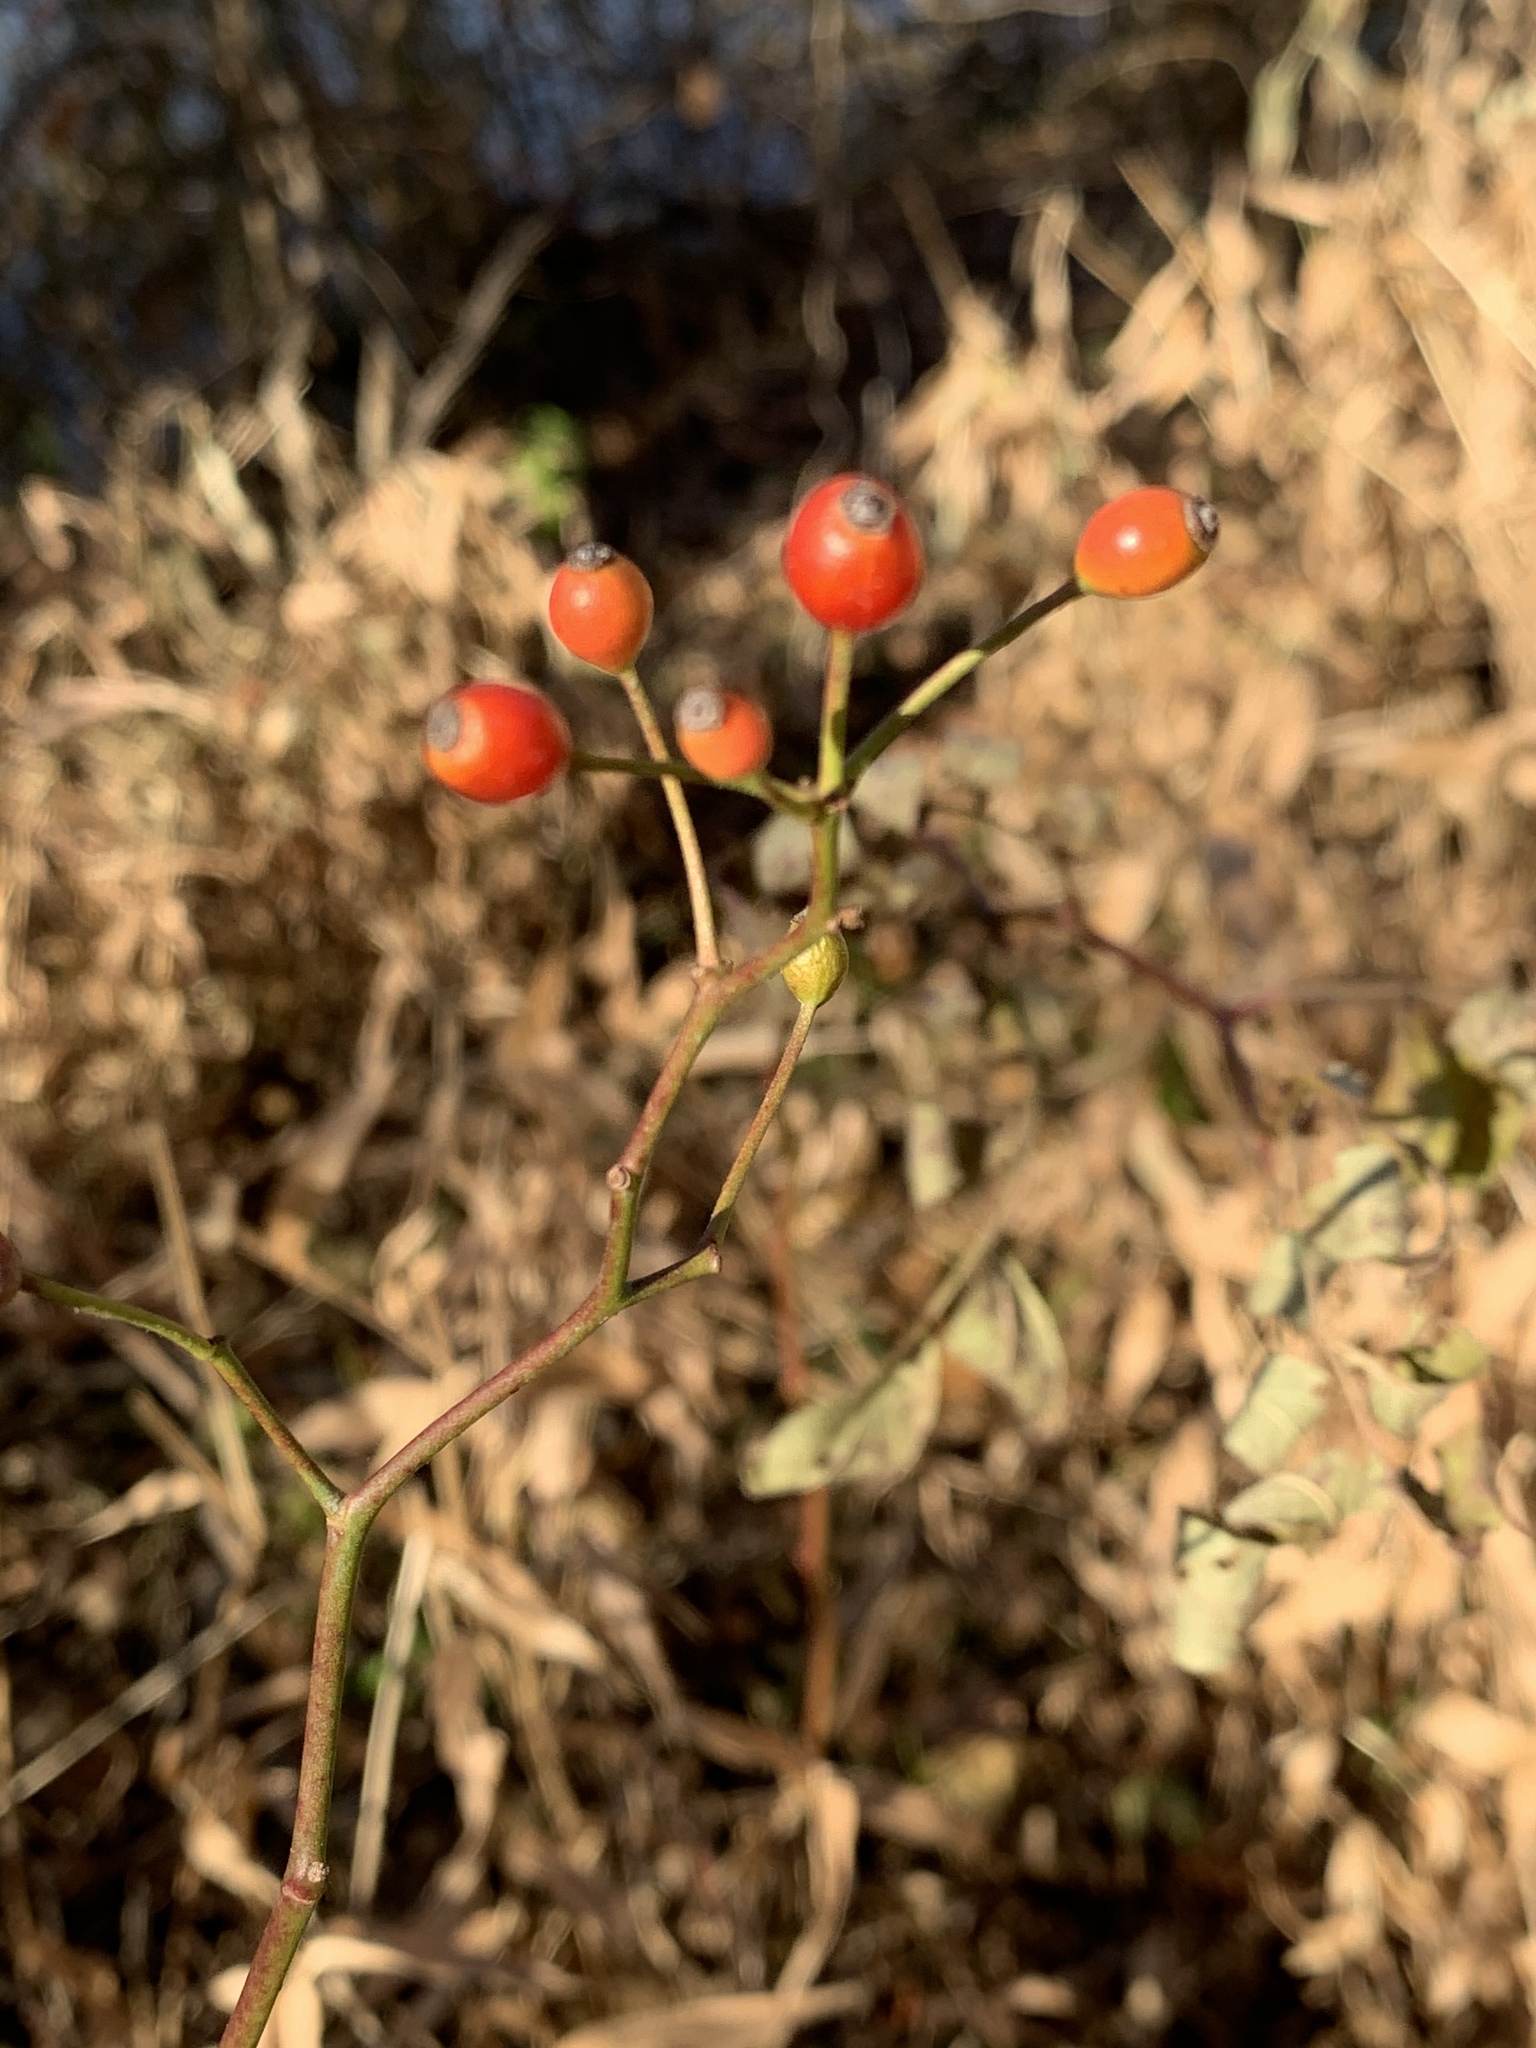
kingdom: Plantae
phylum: Tracheophyta
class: Magnoliopsida
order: Rosales
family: Rosaceae
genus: Rosa
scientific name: Rosa multiflora
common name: Multiflora rose
